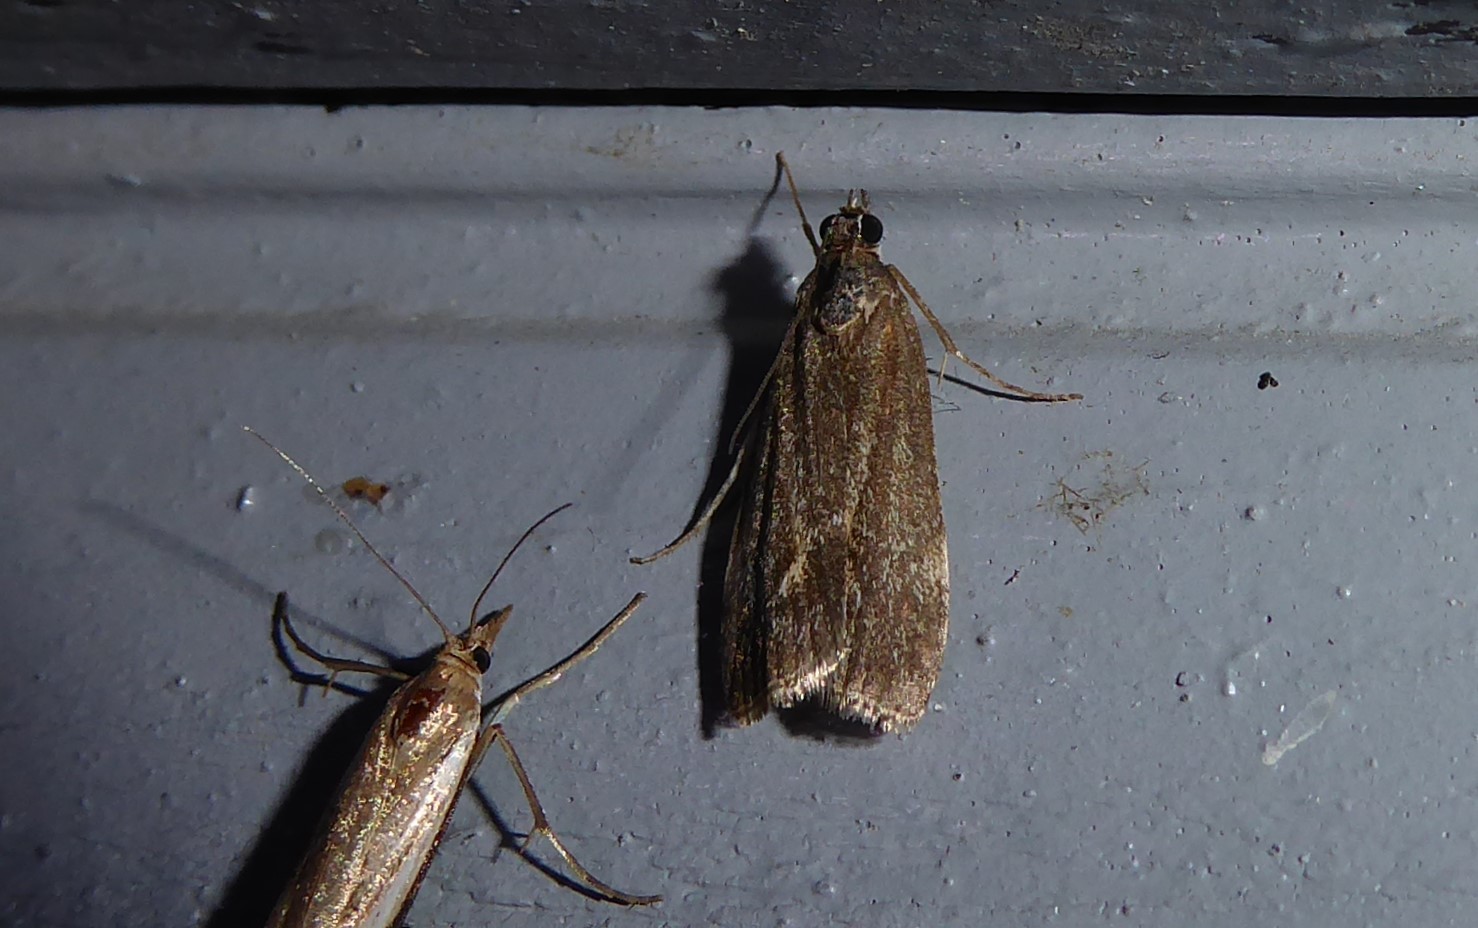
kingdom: Animalia
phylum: Arthropoda
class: Insecta
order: Lepidoptera
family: Crambidae
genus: Eudonia
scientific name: Eudonia submarginalis
